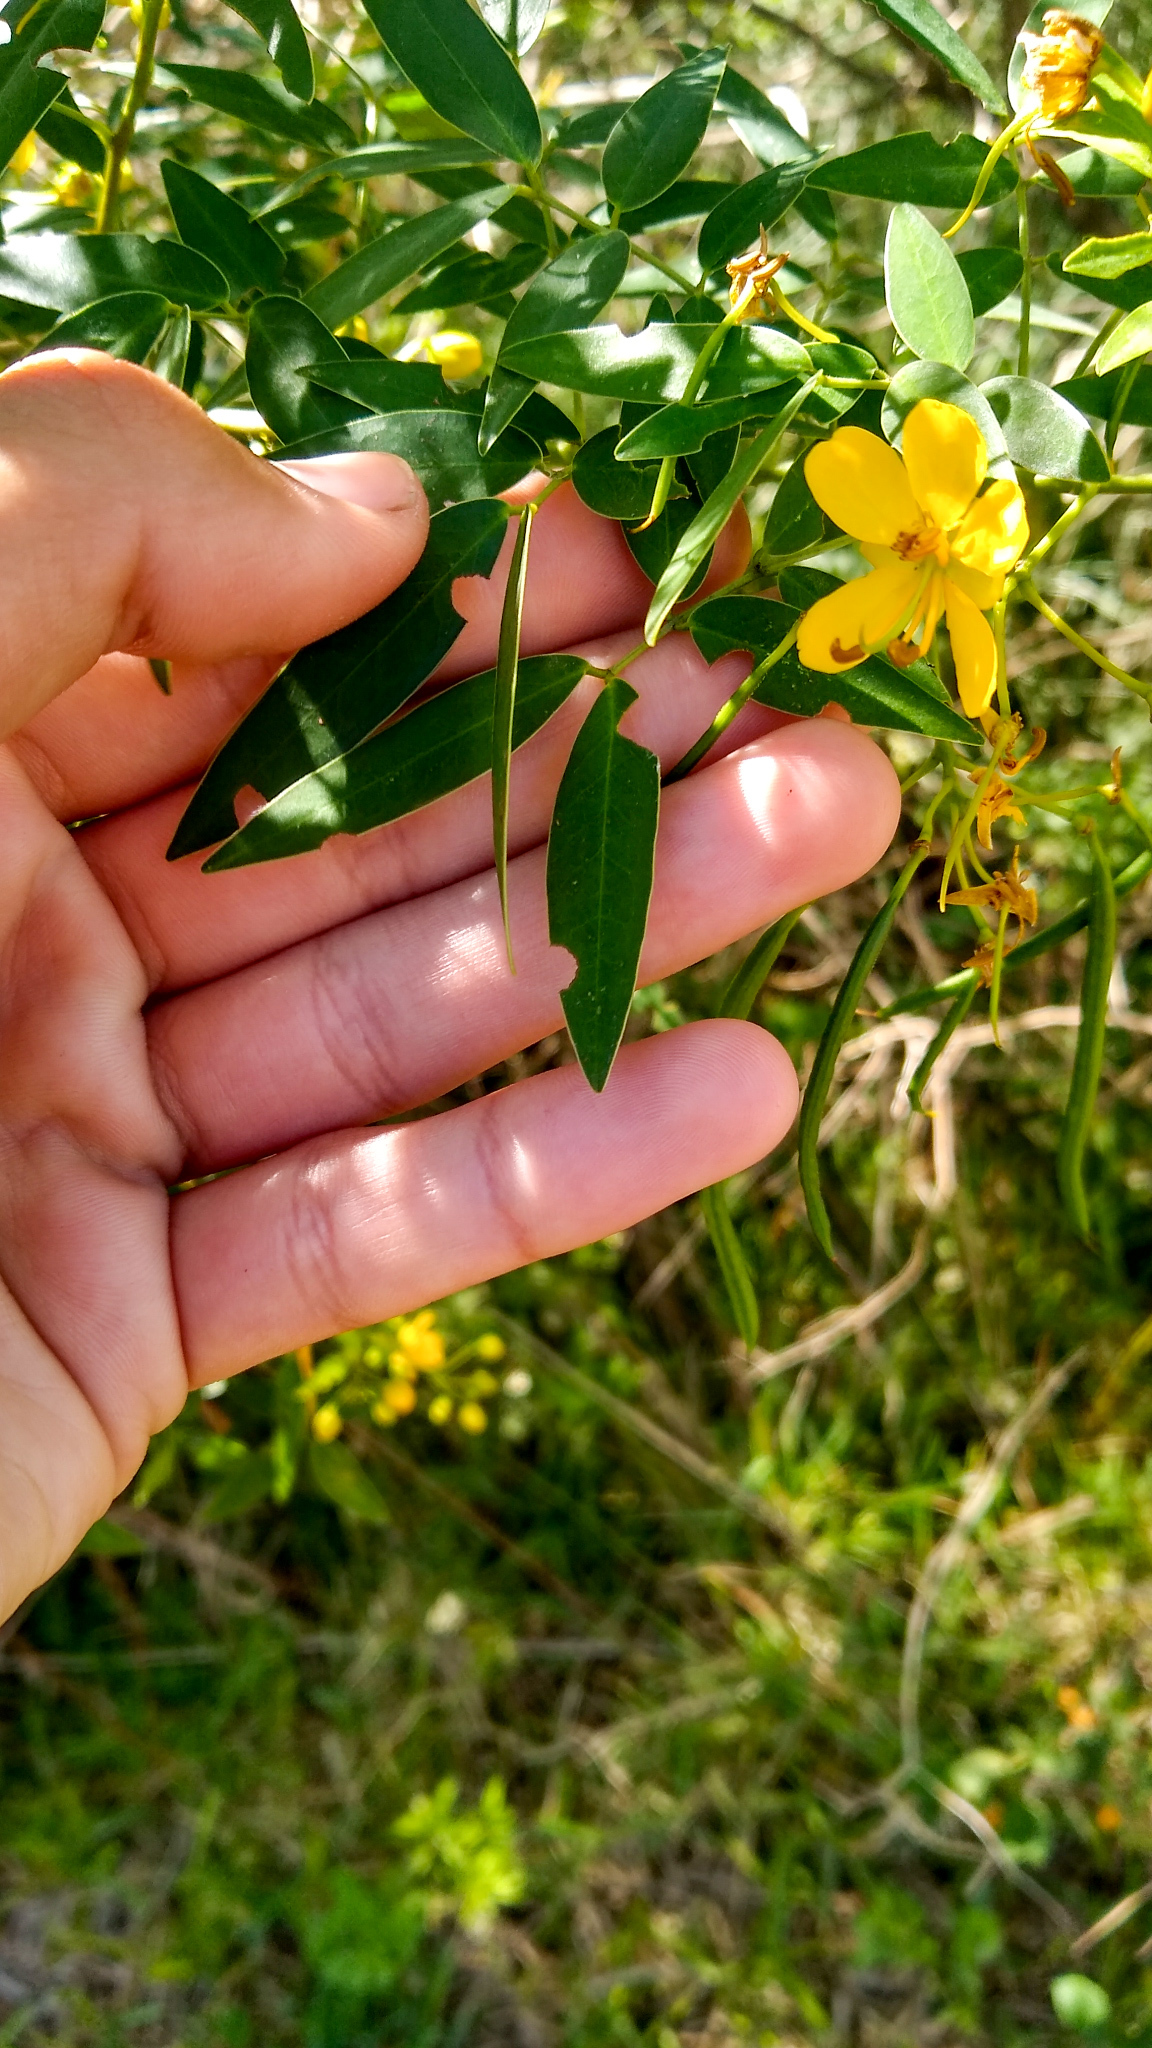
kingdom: Plantae
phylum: Tracheophyta
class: Magnoliopsida
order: Fabales
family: Fabaceae
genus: Senna
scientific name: Senna corymbosa
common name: Argentine senna
